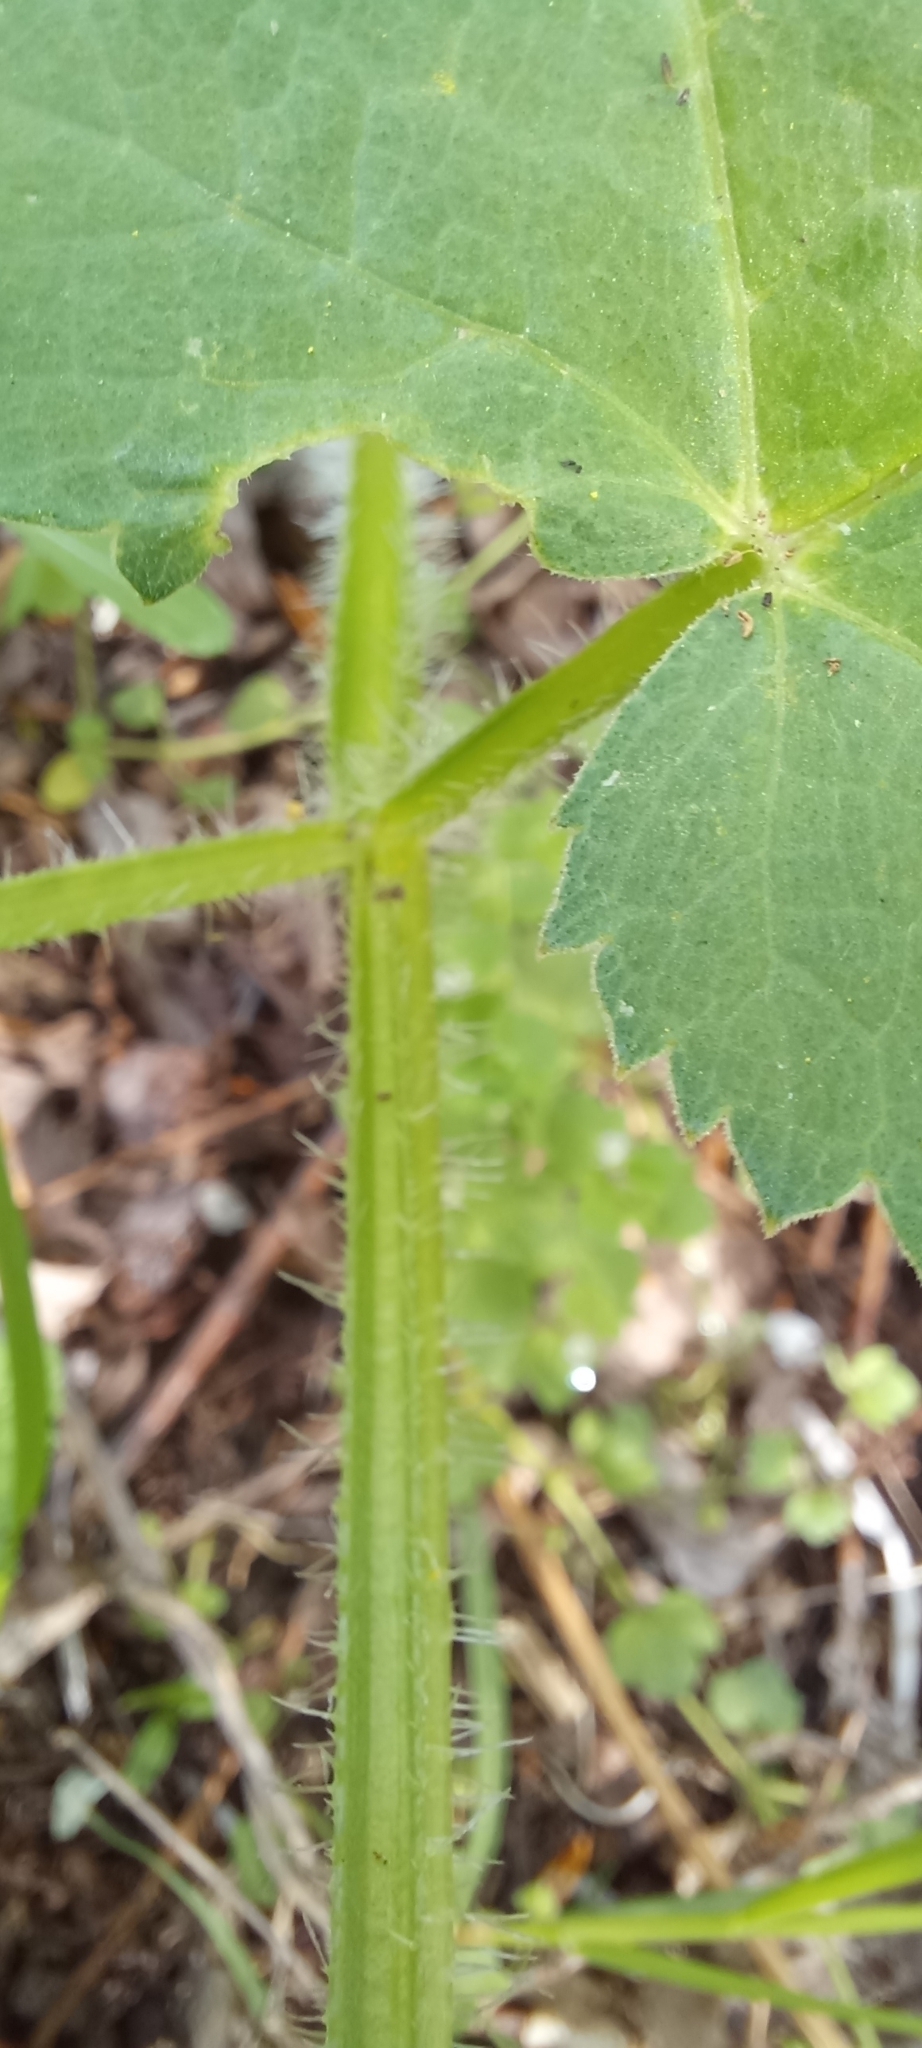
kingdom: Plantae
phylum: Tracheophyta
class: Magnoliopsida
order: Apiales
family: Apiaceae
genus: Heracleum
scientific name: Heracleum sosnowskyi
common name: Sosnowsky's hogweed
